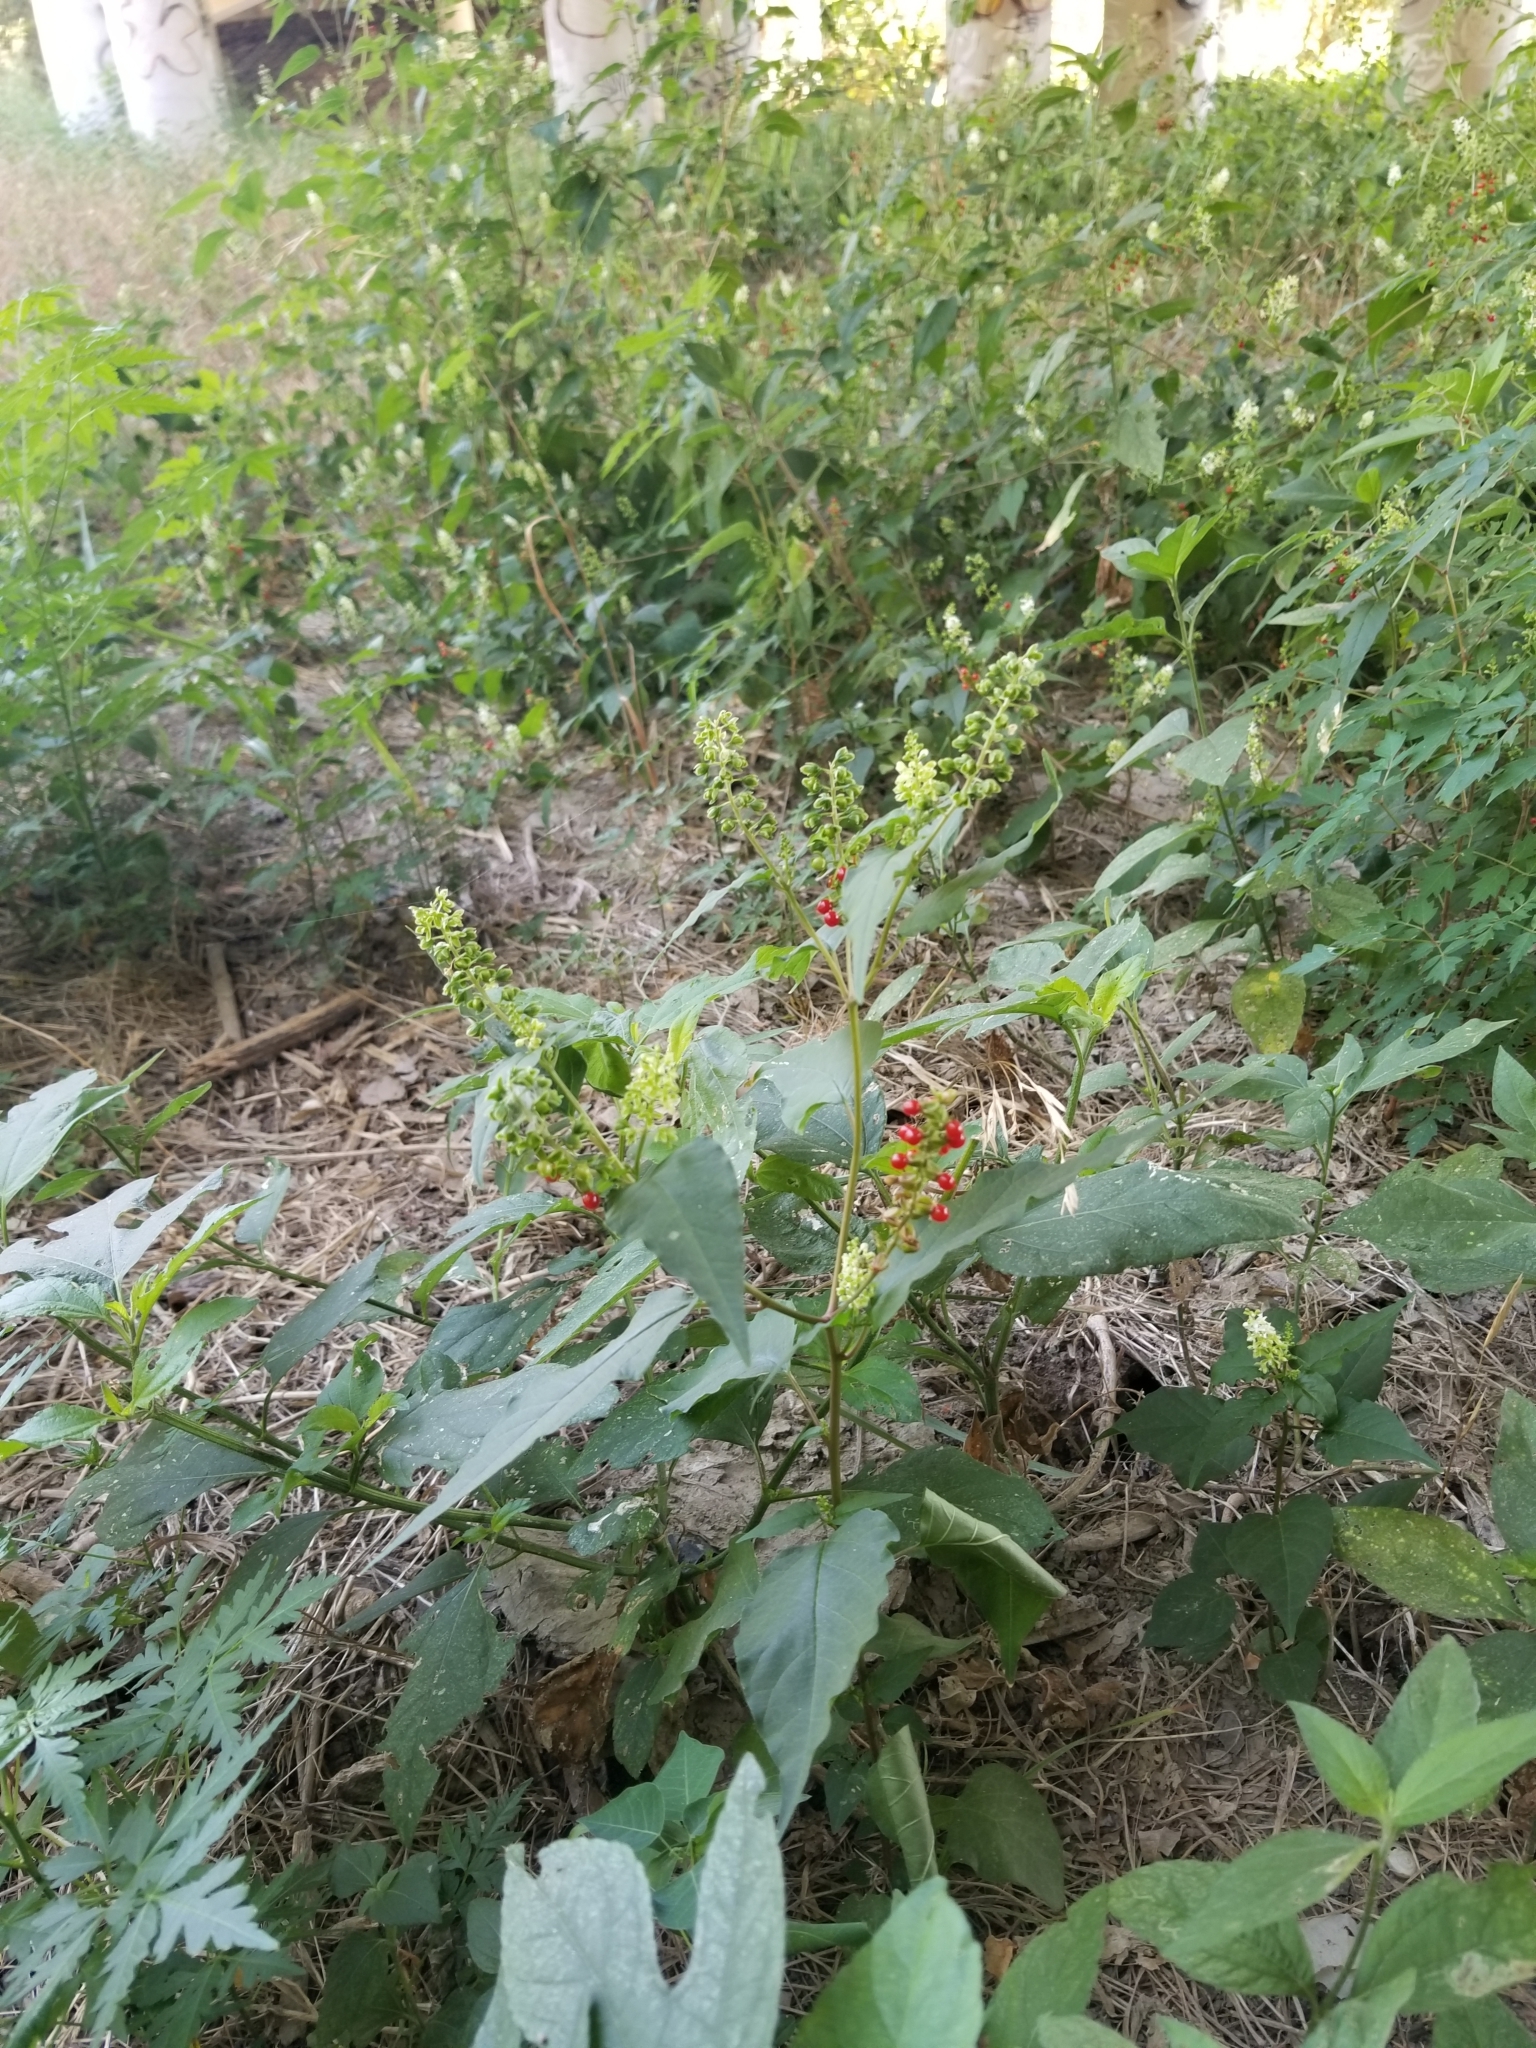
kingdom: Plantae
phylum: Tracheophyta
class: Magnoliopsida
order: Caryophyllales
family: Phytolaccaceae
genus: Rivina
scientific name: Rivina humilis
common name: Rougeplant
